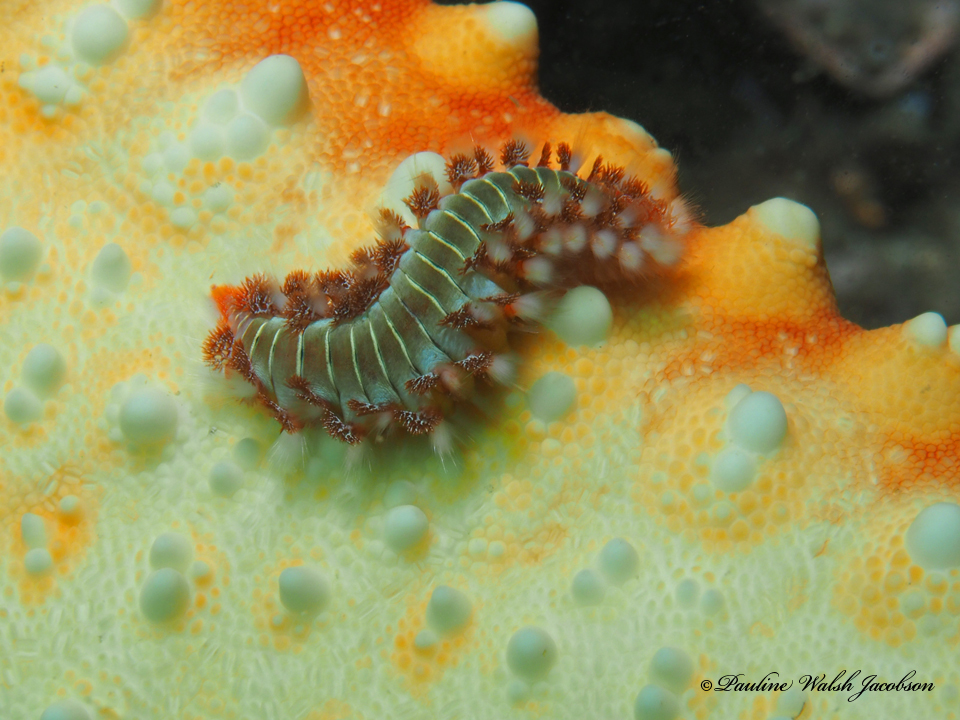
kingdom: Animalia
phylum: Annelida
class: Polychaeta
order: Amphinomida
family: Amphinomidae
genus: Hermodice
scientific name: Hermodice carunculata
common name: Bearded fireworm
